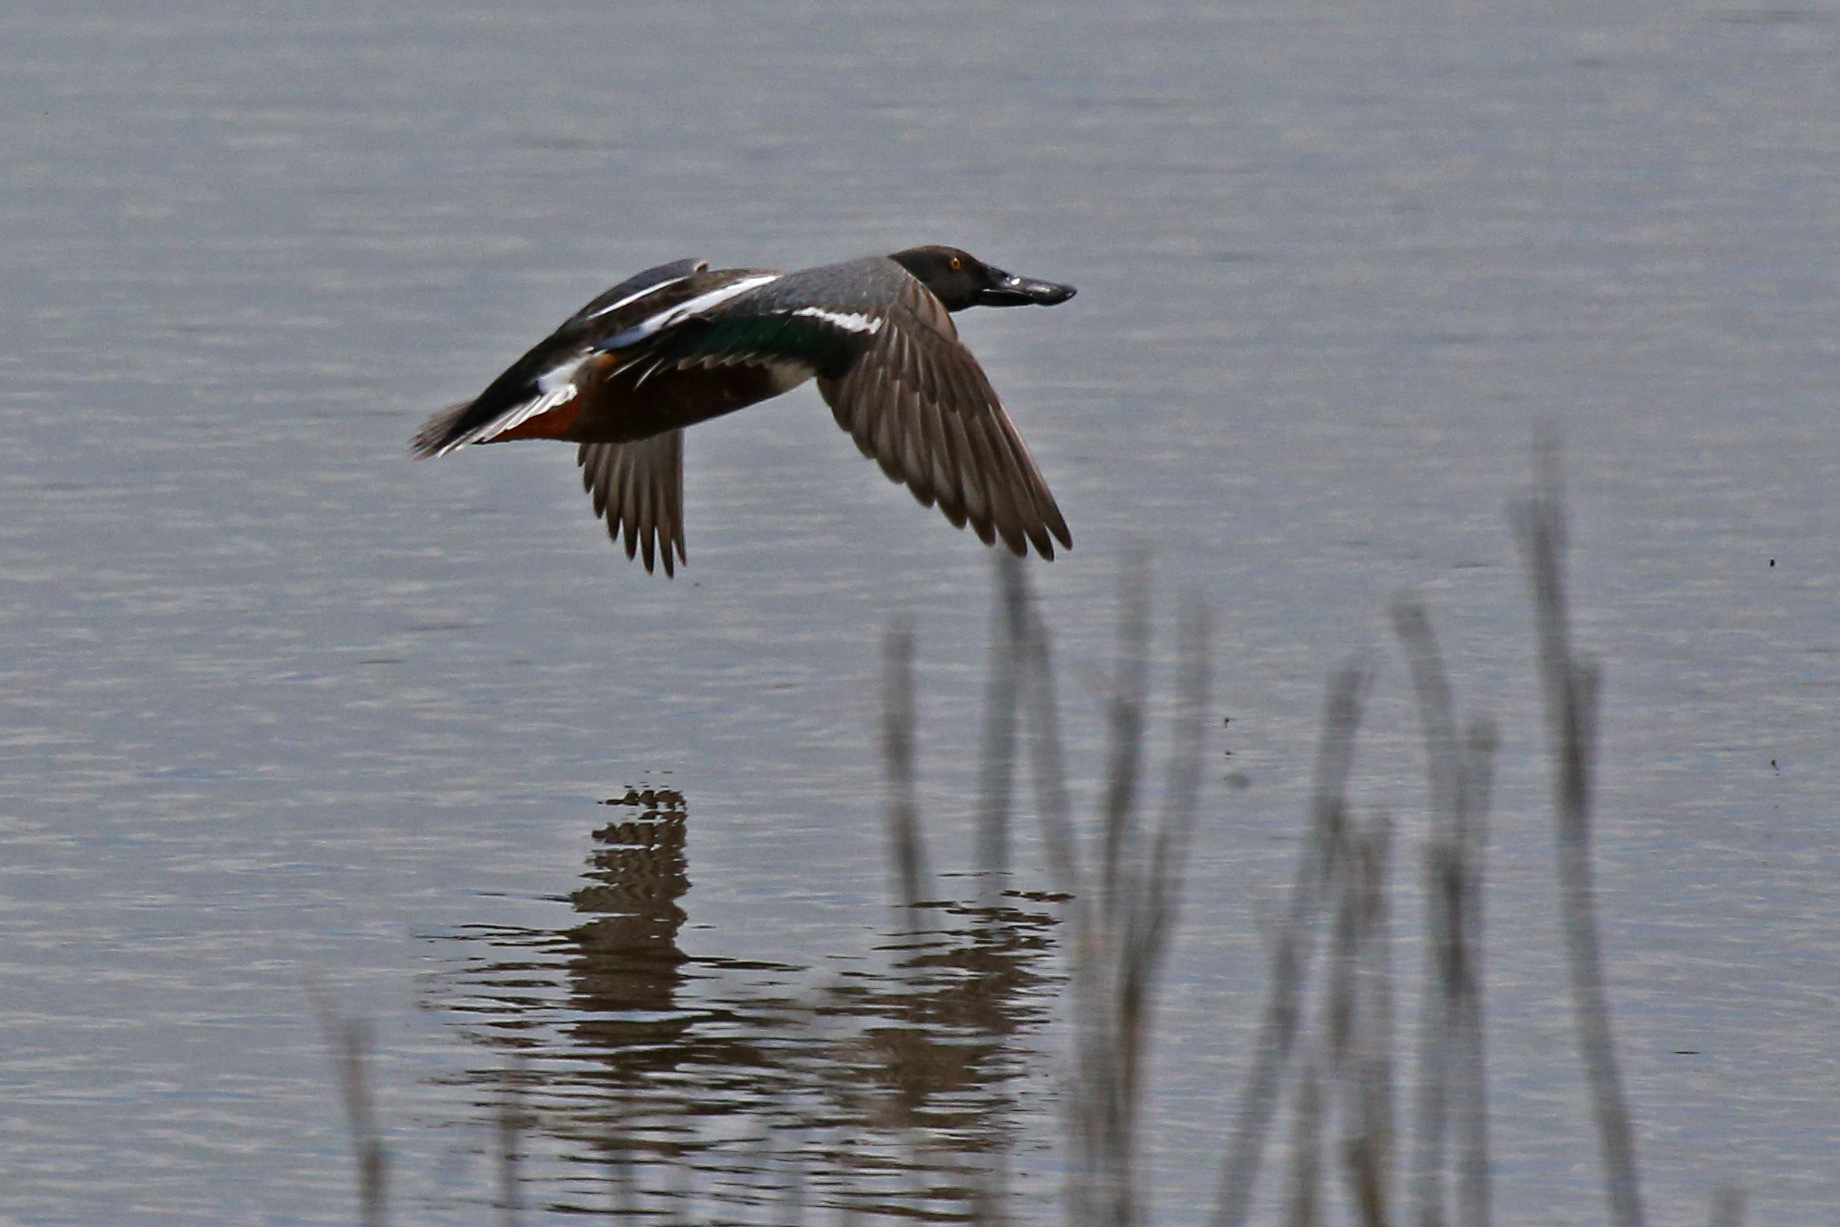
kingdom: Animalia
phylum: Chordata
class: Aves
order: Anseriformes
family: Anatidae
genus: Spatula
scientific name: Spatula clypeata
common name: Northern shoveler
